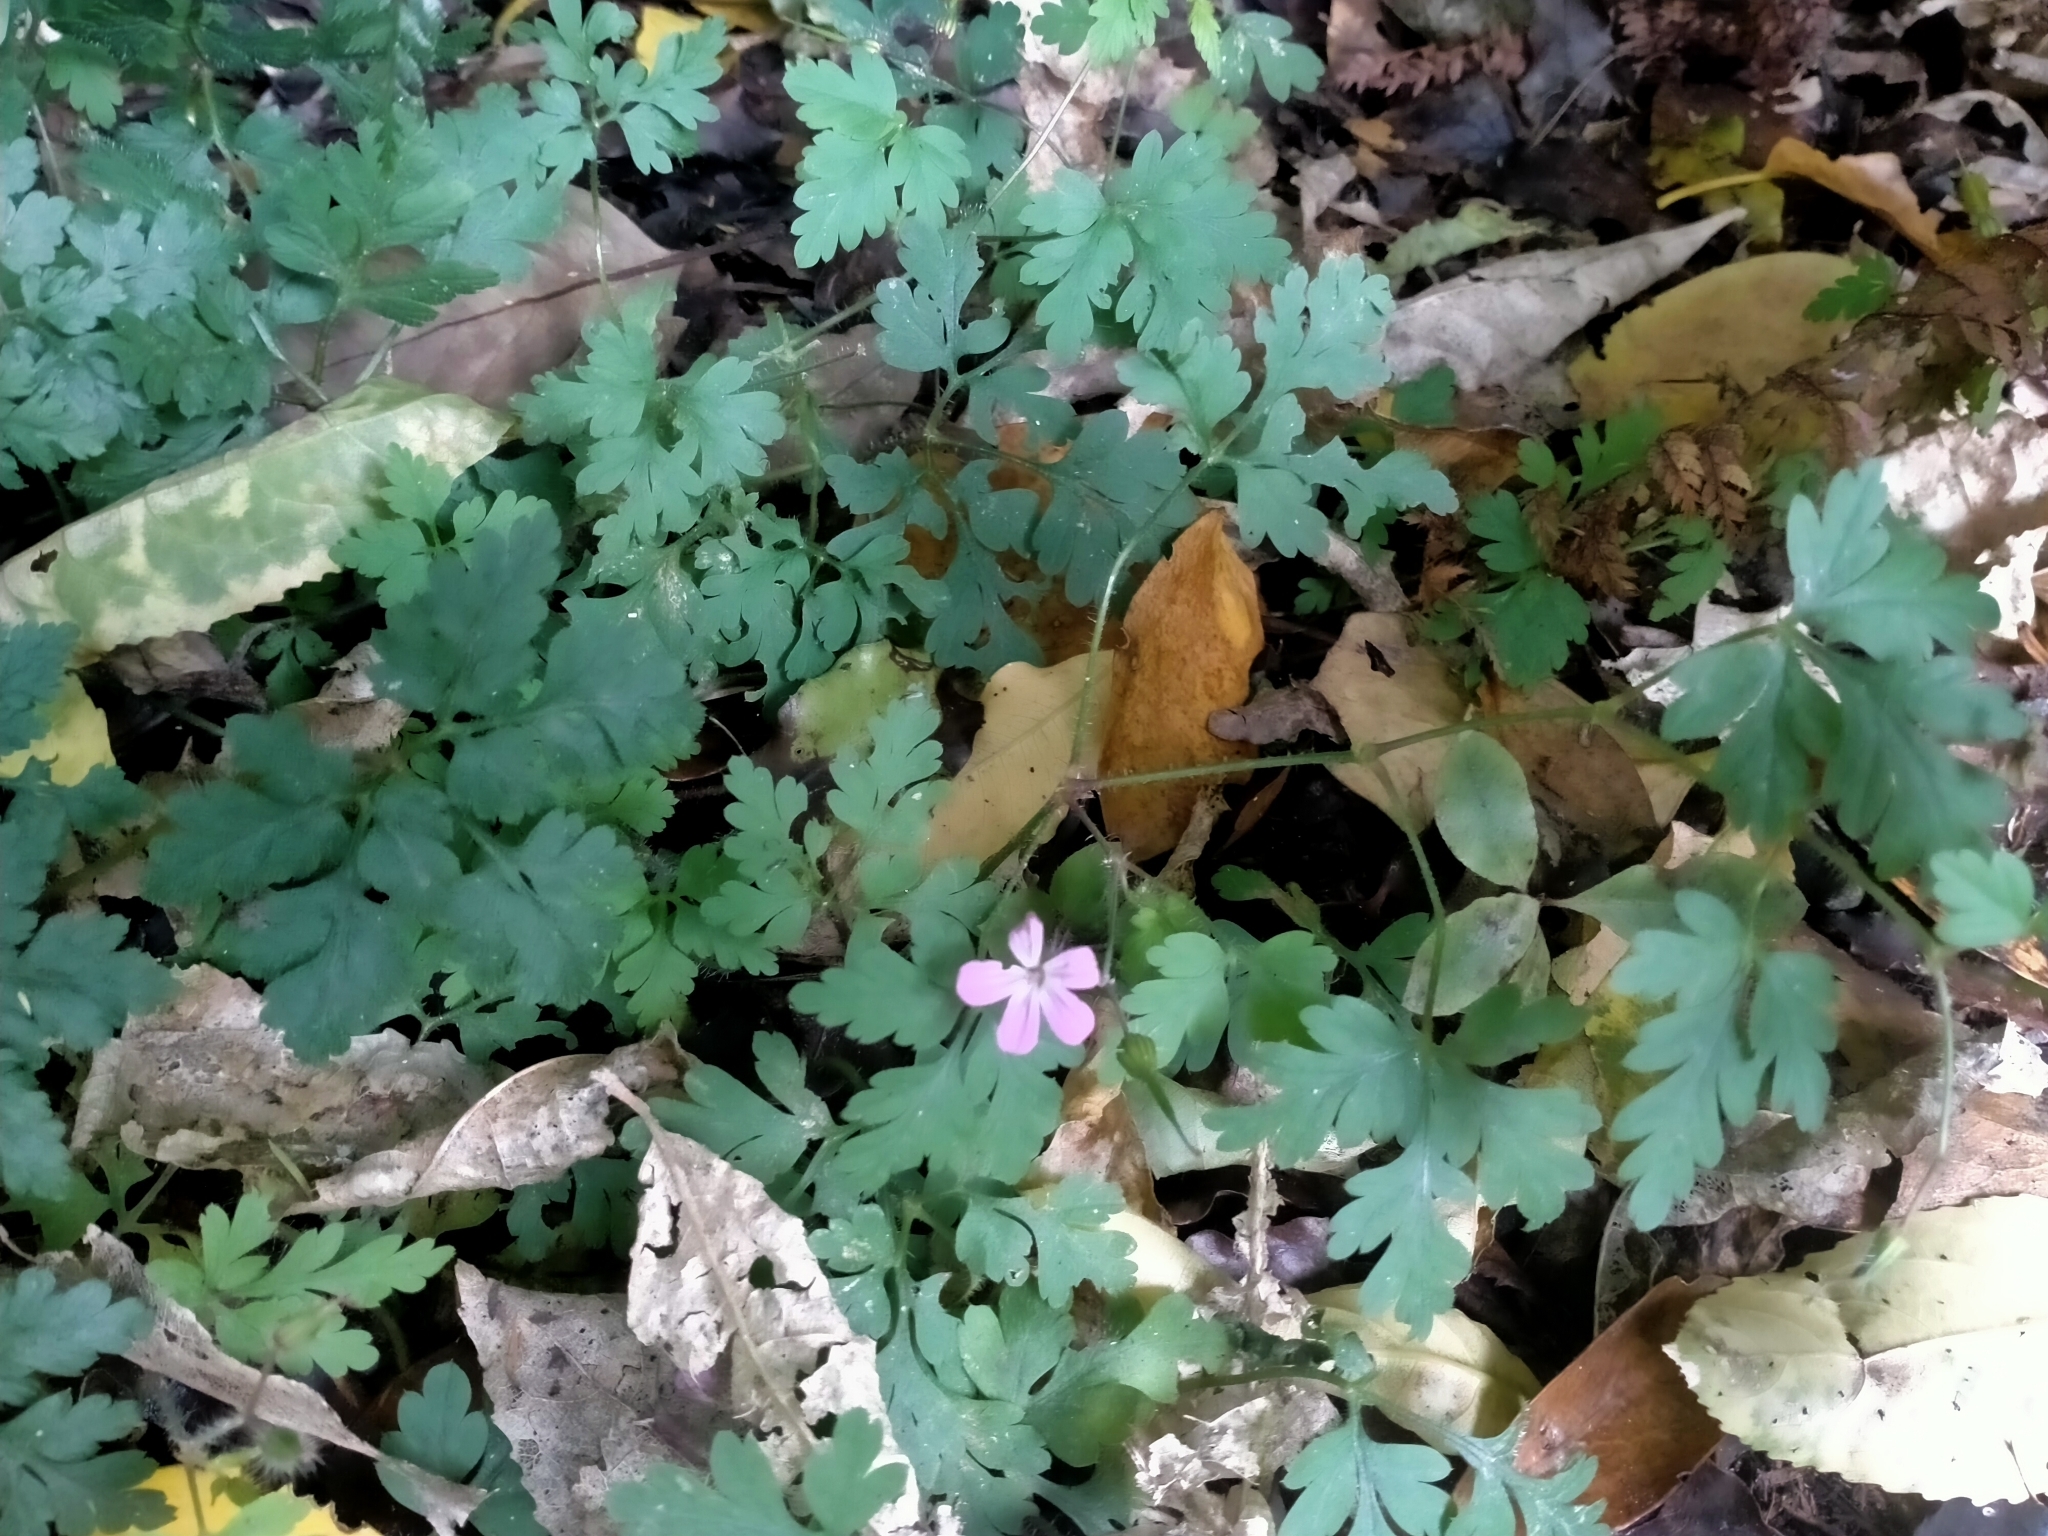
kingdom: Plantae
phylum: Tracheophyta
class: Magnoliopsida
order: Geraniales
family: Geraniaceae
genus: Geranium
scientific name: Geranium robertianum
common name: Herb-robert
